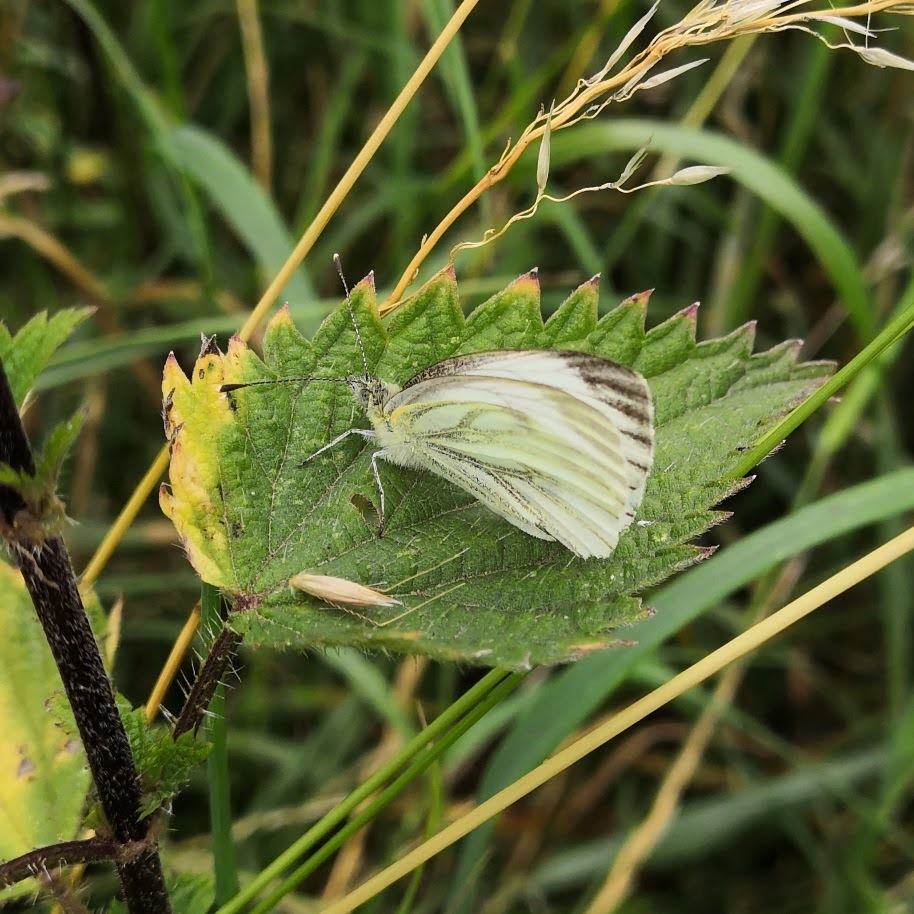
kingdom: Animalia
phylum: Arthropoda
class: Insecta
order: Lepidoptera
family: Pieridae
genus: Pieris
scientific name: Pieris napi
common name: Green-veined white
